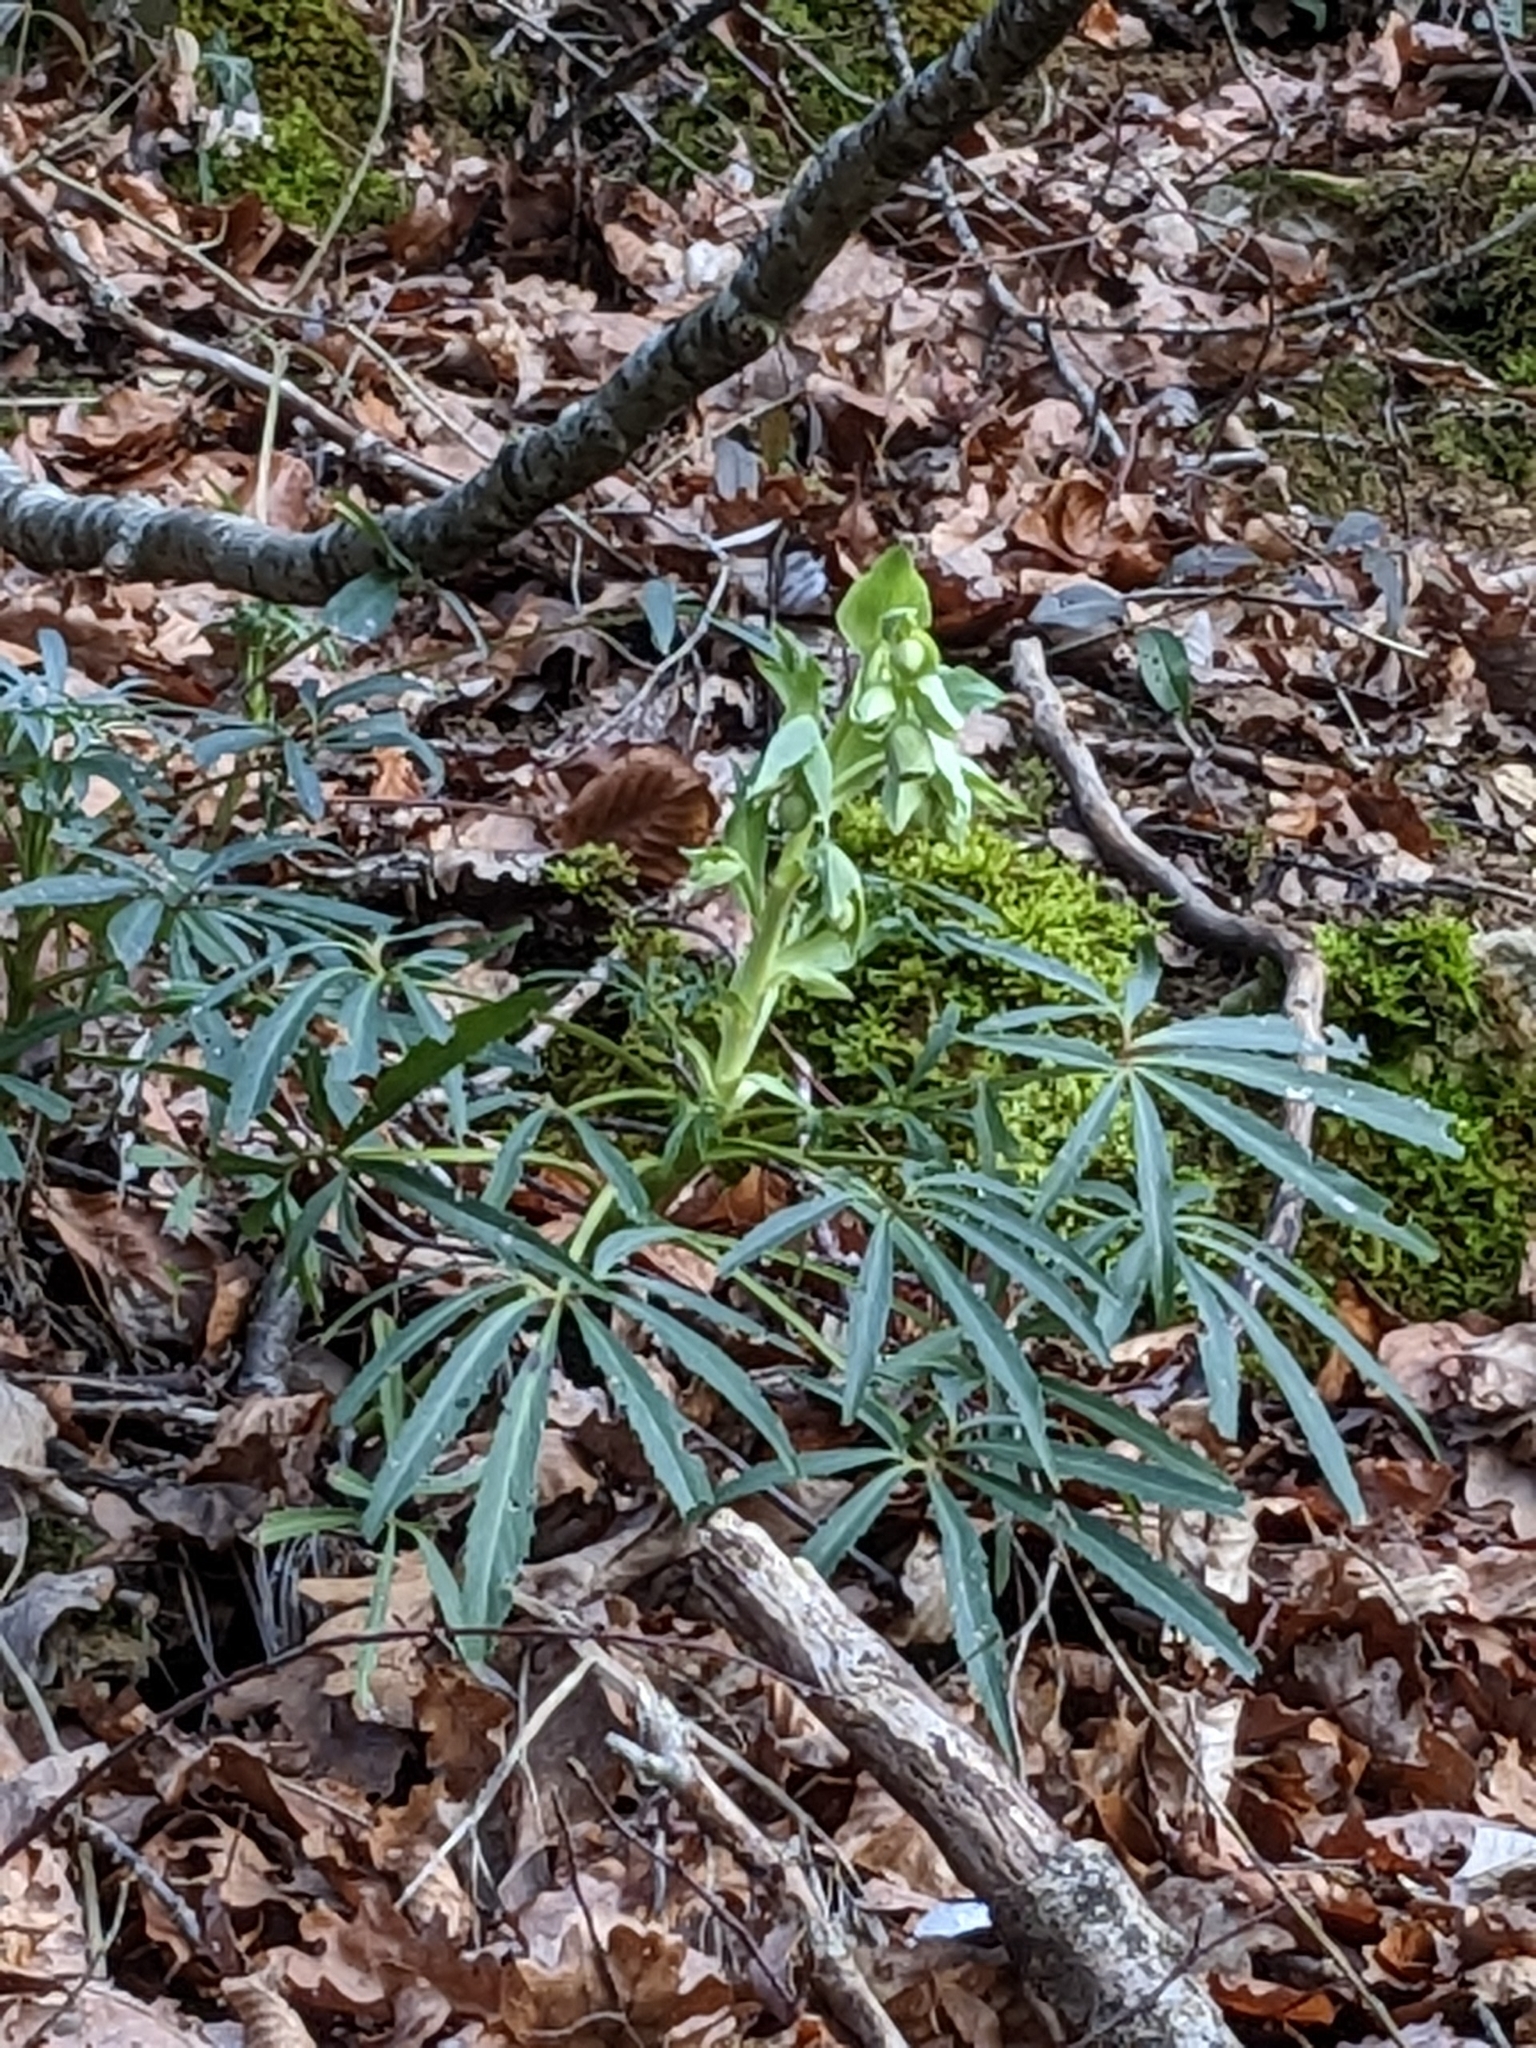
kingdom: Plantae
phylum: Tracheophyta
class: Magnoliopsida
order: Ranunculales
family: Ranunculaceae
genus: Helleborus
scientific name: Helleborus foetidus
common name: Stinking hellebore
